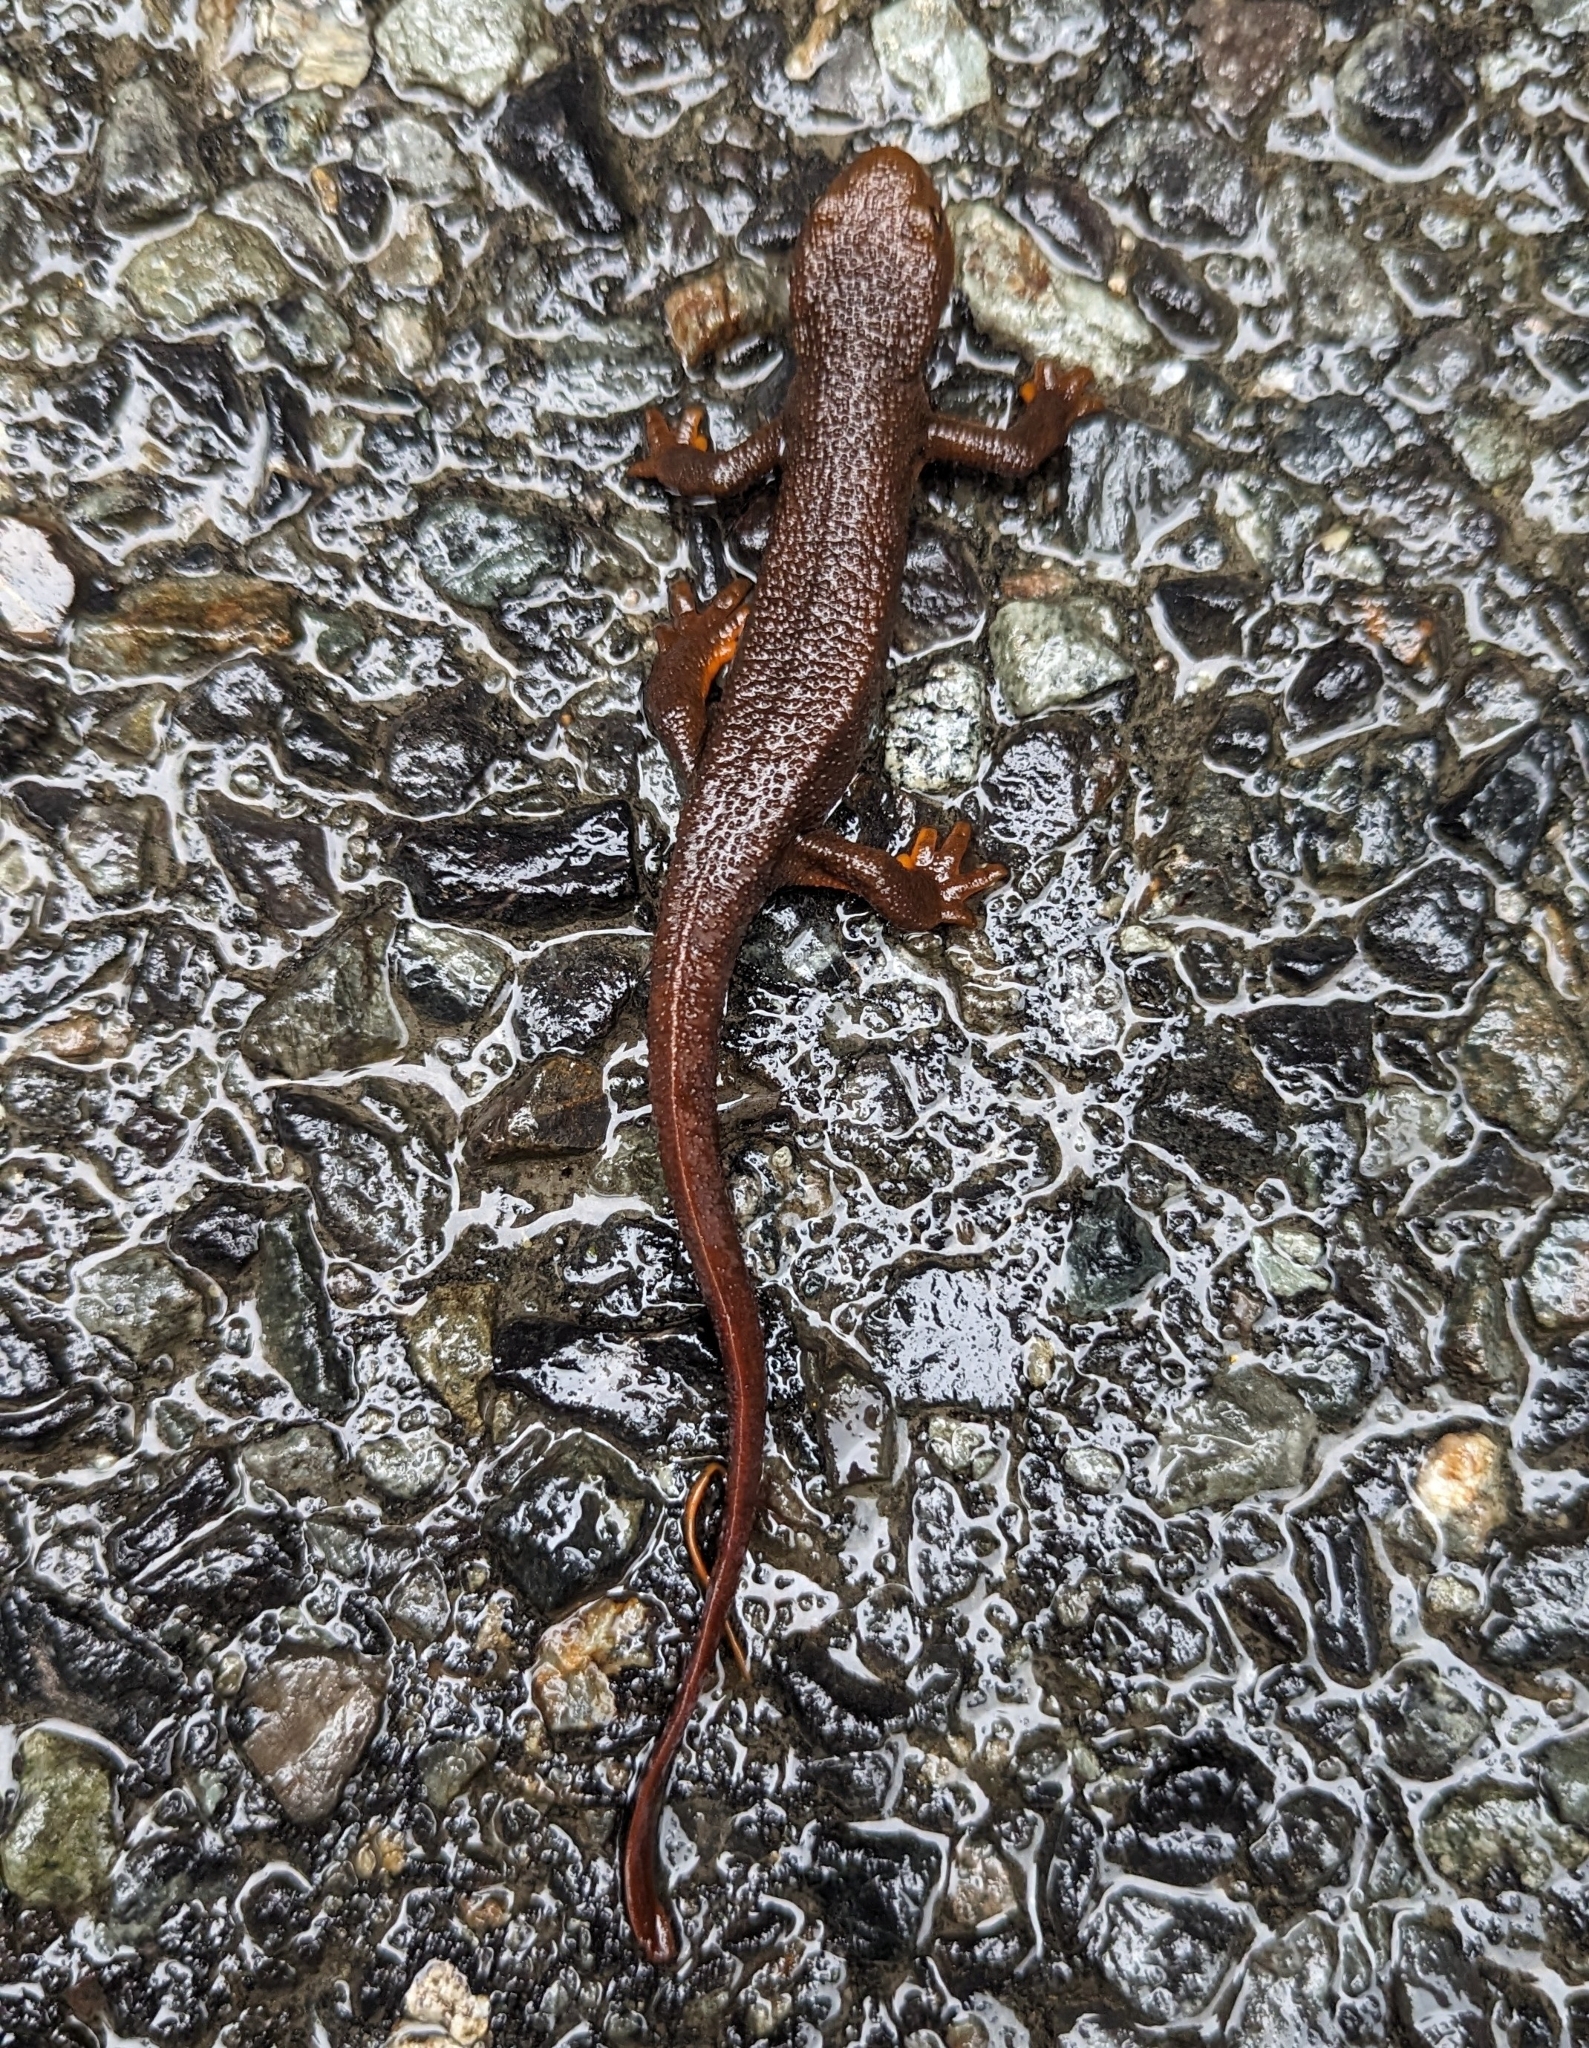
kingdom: Animalia
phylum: Chordata
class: Amphibia
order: Caudata
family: Salamandridae
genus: Taricha
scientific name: Taricha granulosa
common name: Roughskin newt
